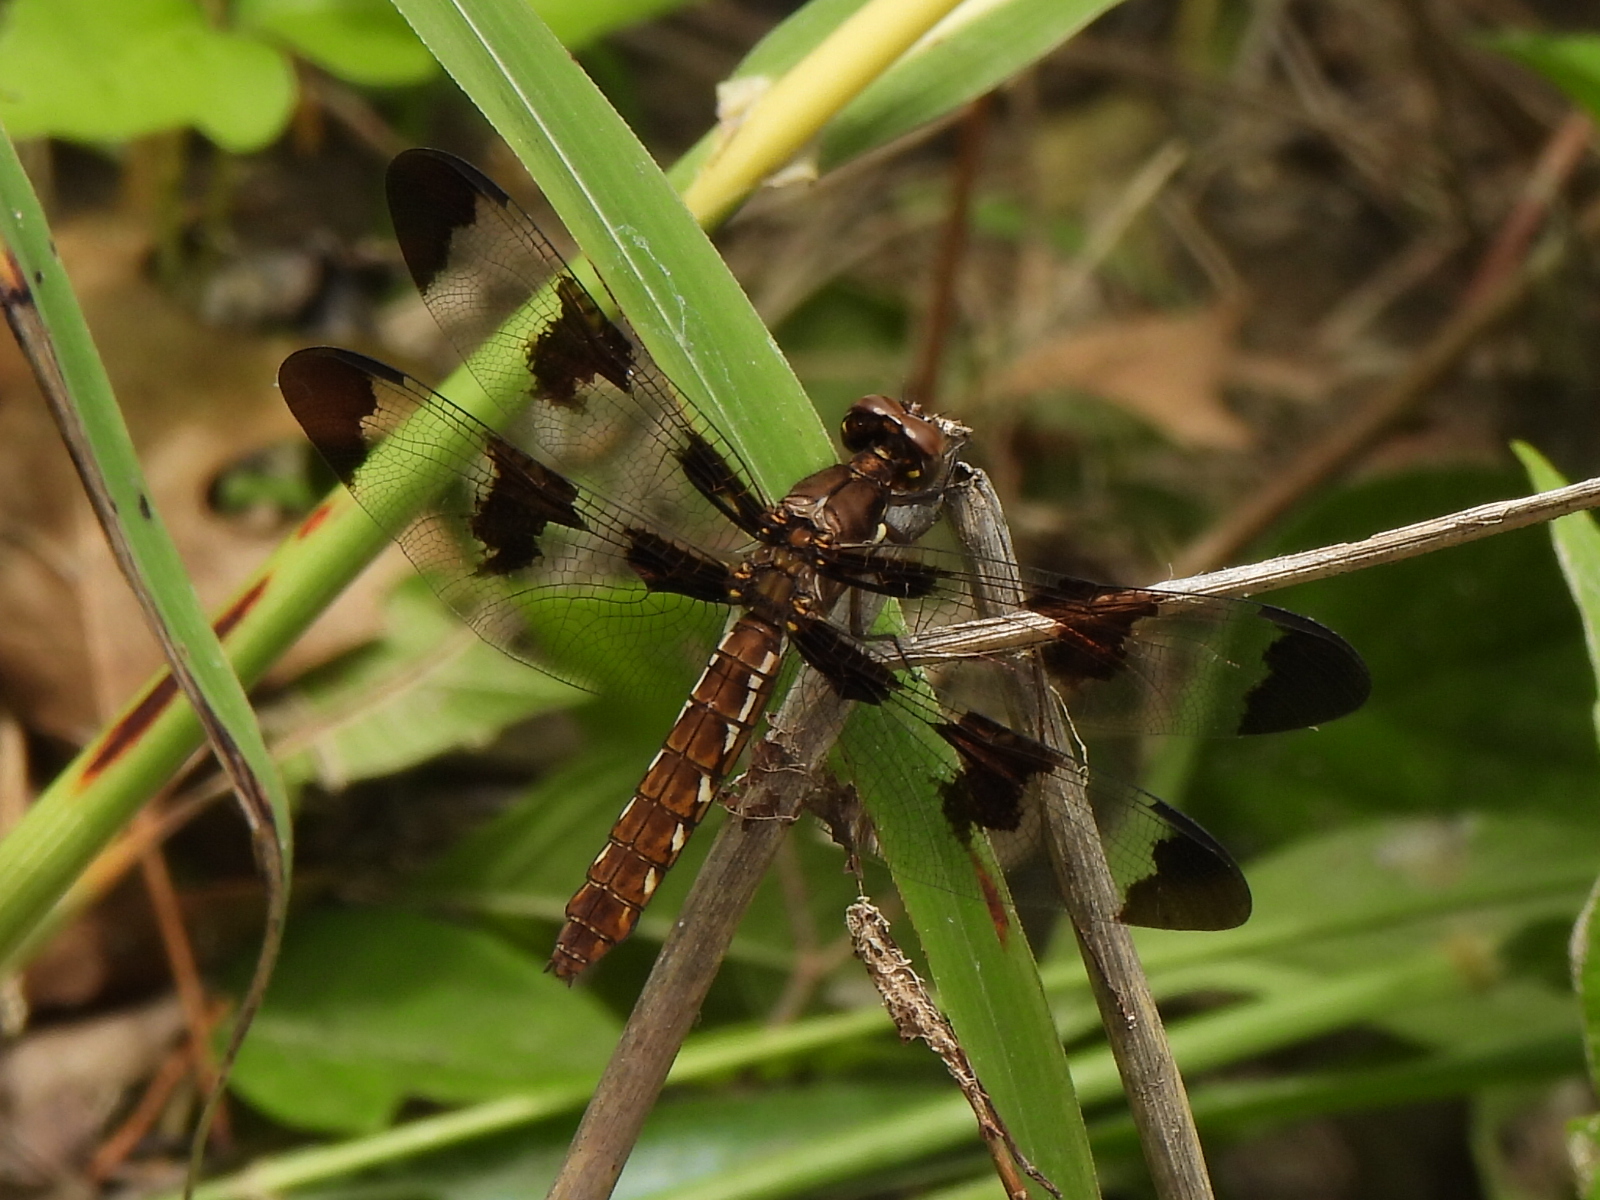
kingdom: Animalia
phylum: Arthropoda
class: Insecta
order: Odonata
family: Libellulidae
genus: Plathemis
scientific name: Plathemis lydia
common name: Common whitetail
